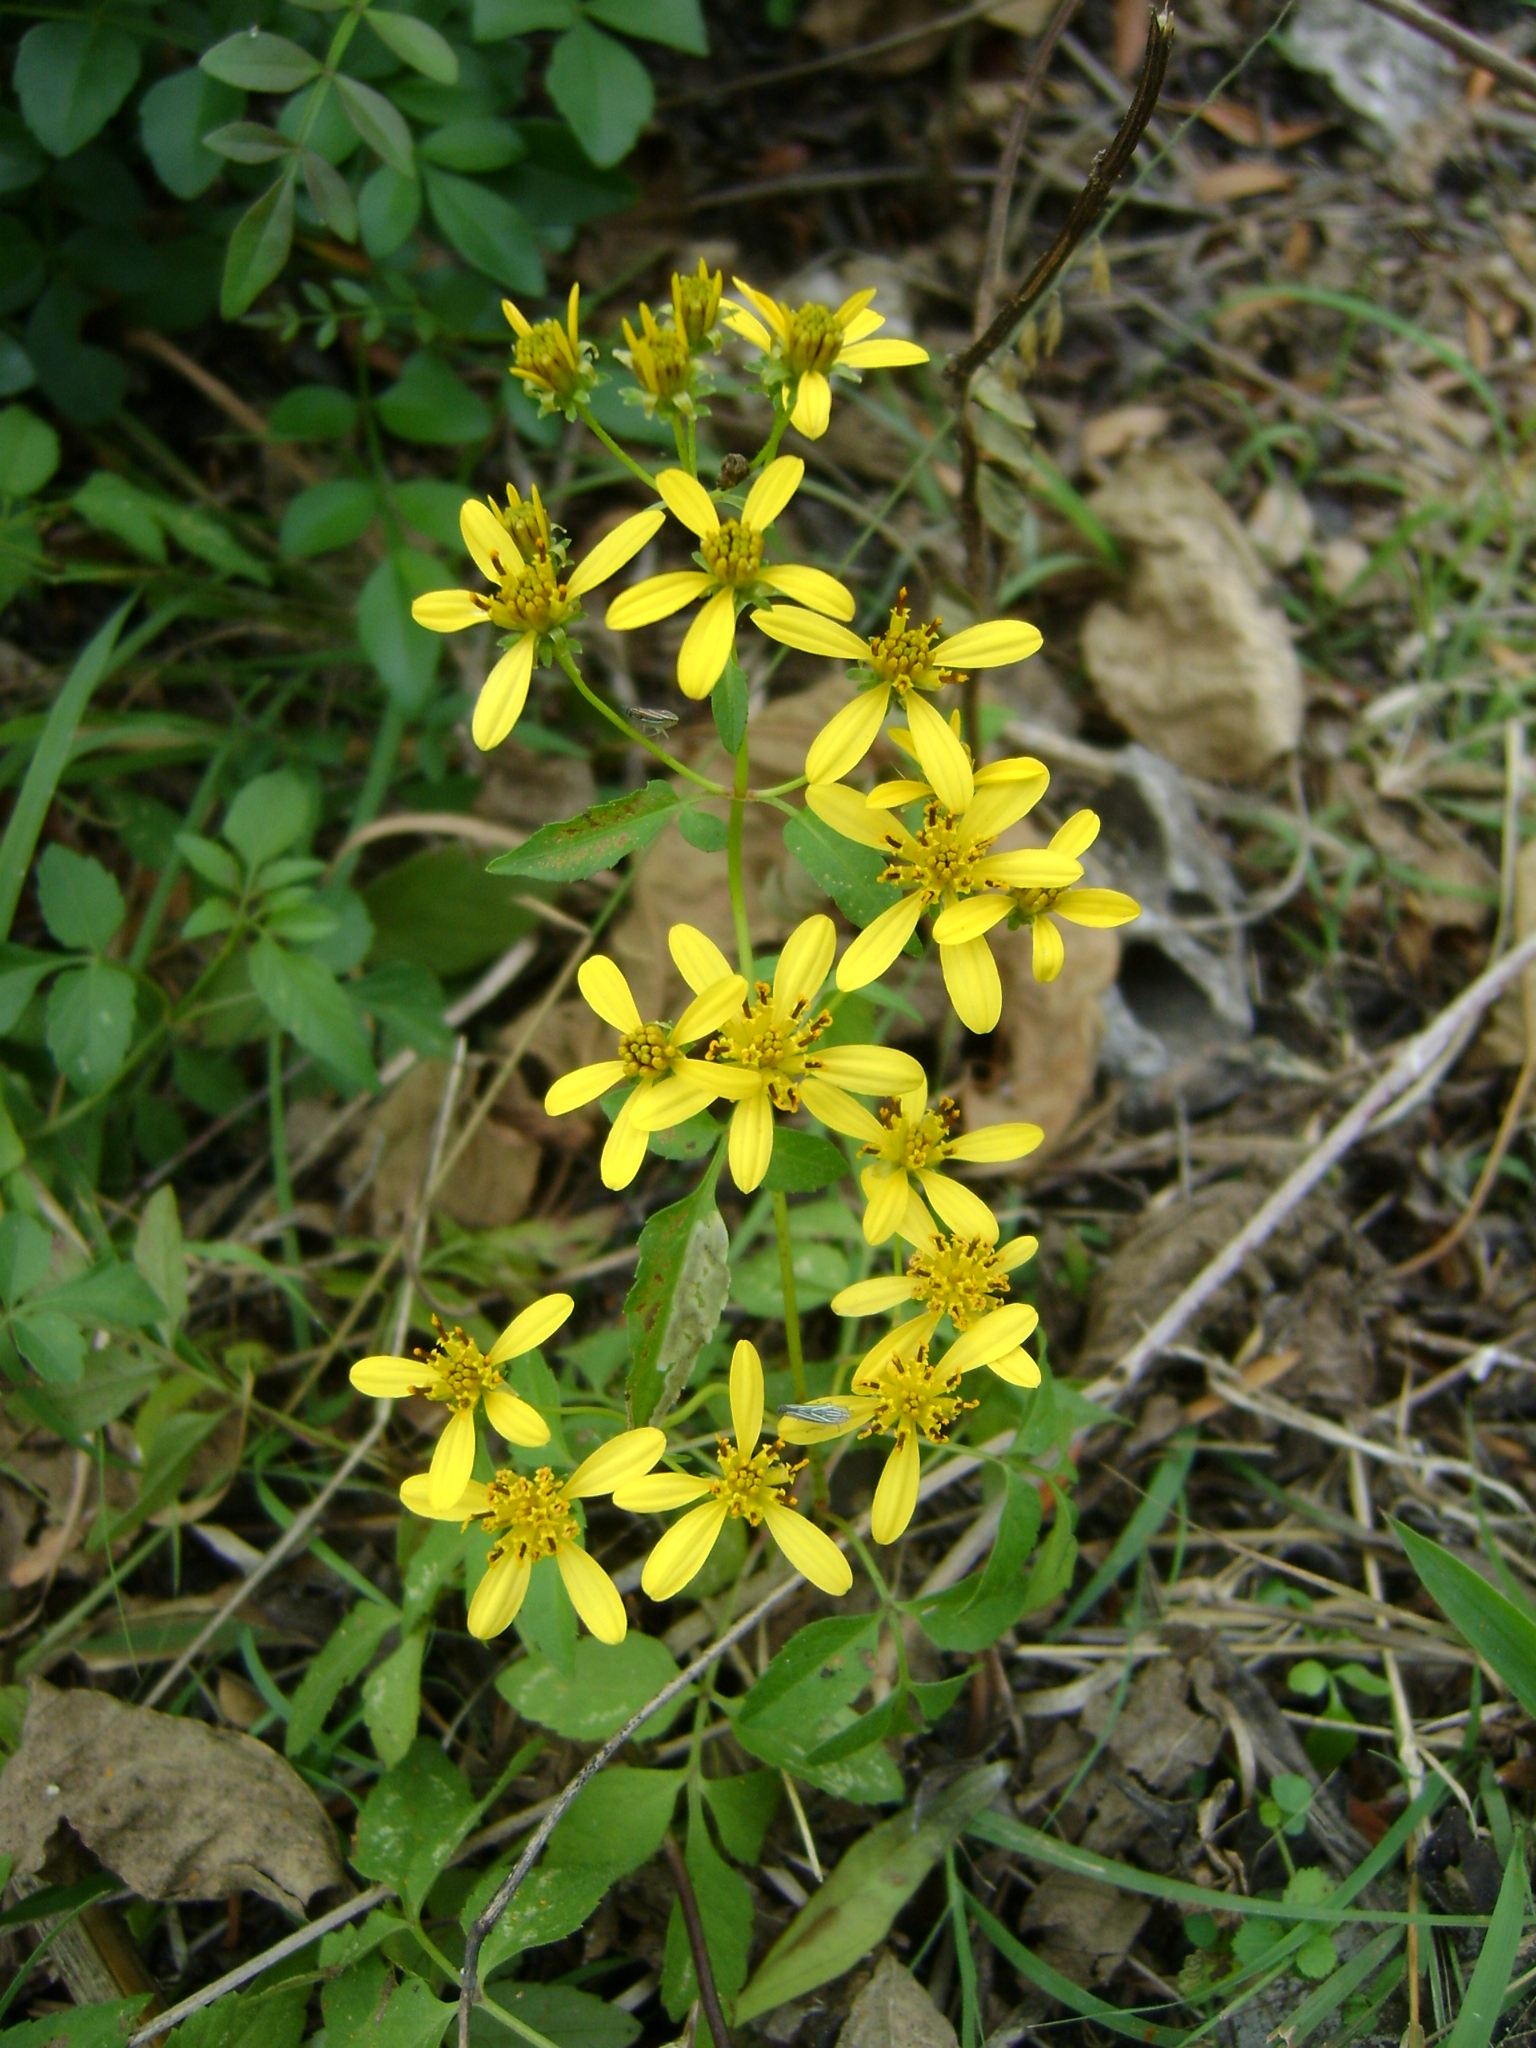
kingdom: Plantae
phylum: Tracheophyta
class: Magnoliopsida
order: Asterales
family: Asteraceae
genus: Bidens
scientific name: Bidens reptans
